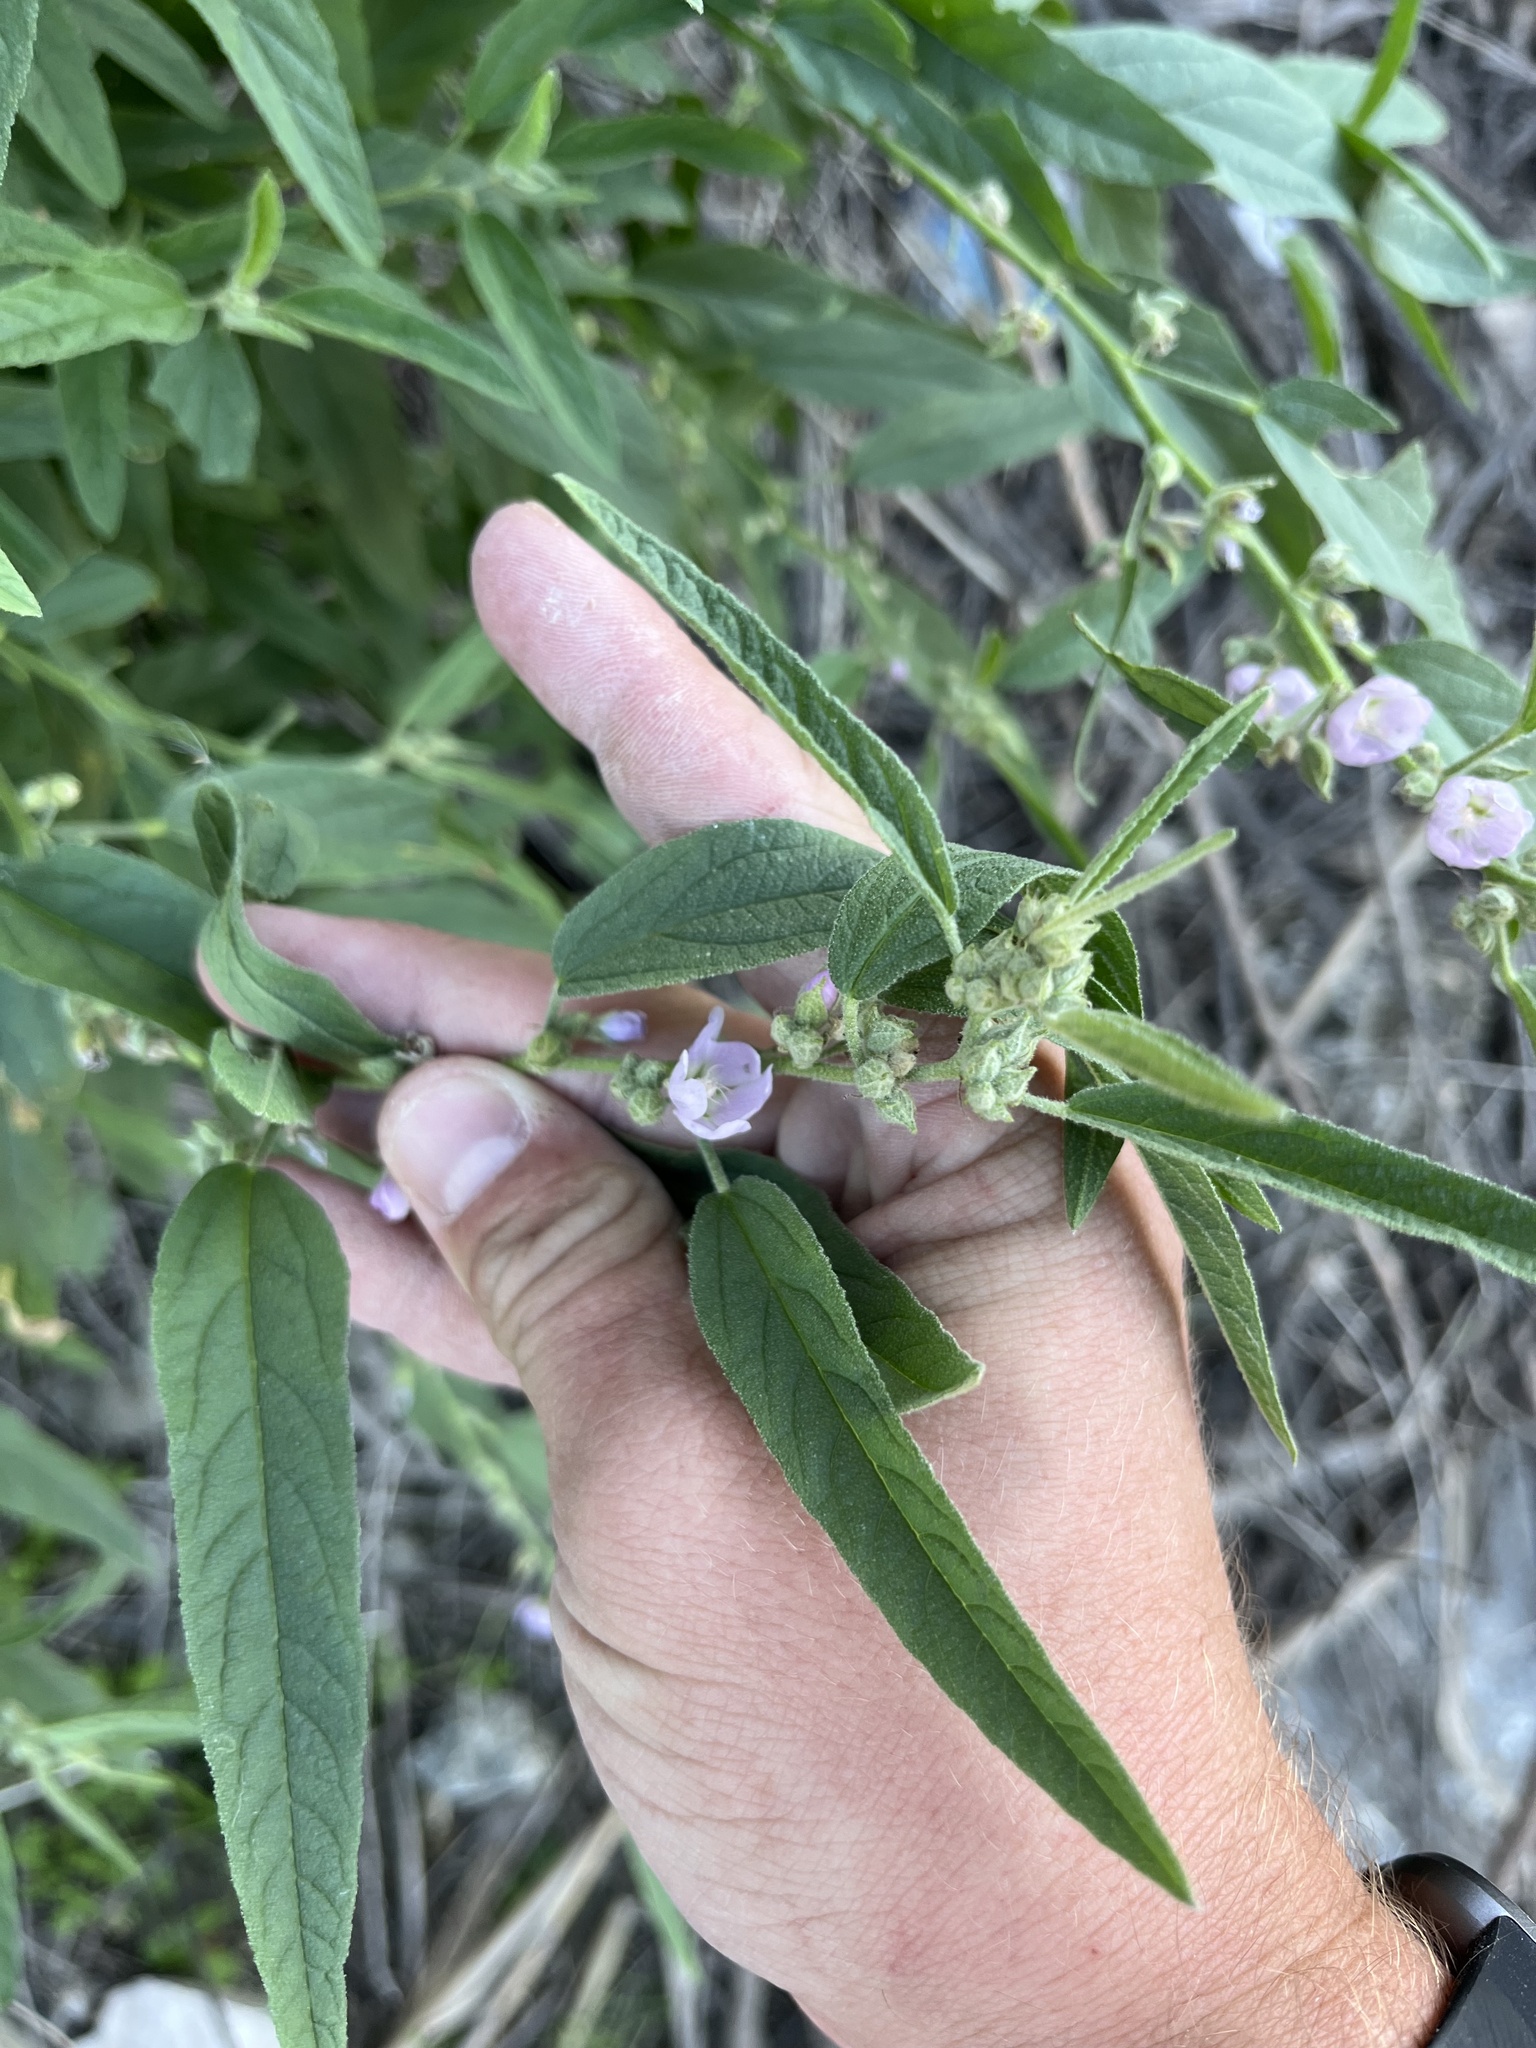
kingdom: Plantae
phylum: Tracheophyta
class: Magnoliopsida
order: Malvales
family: Malvaceae
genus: Sphaeralcea
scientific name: Sphaeralcea angustifolia
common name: Copper globe-mallow
